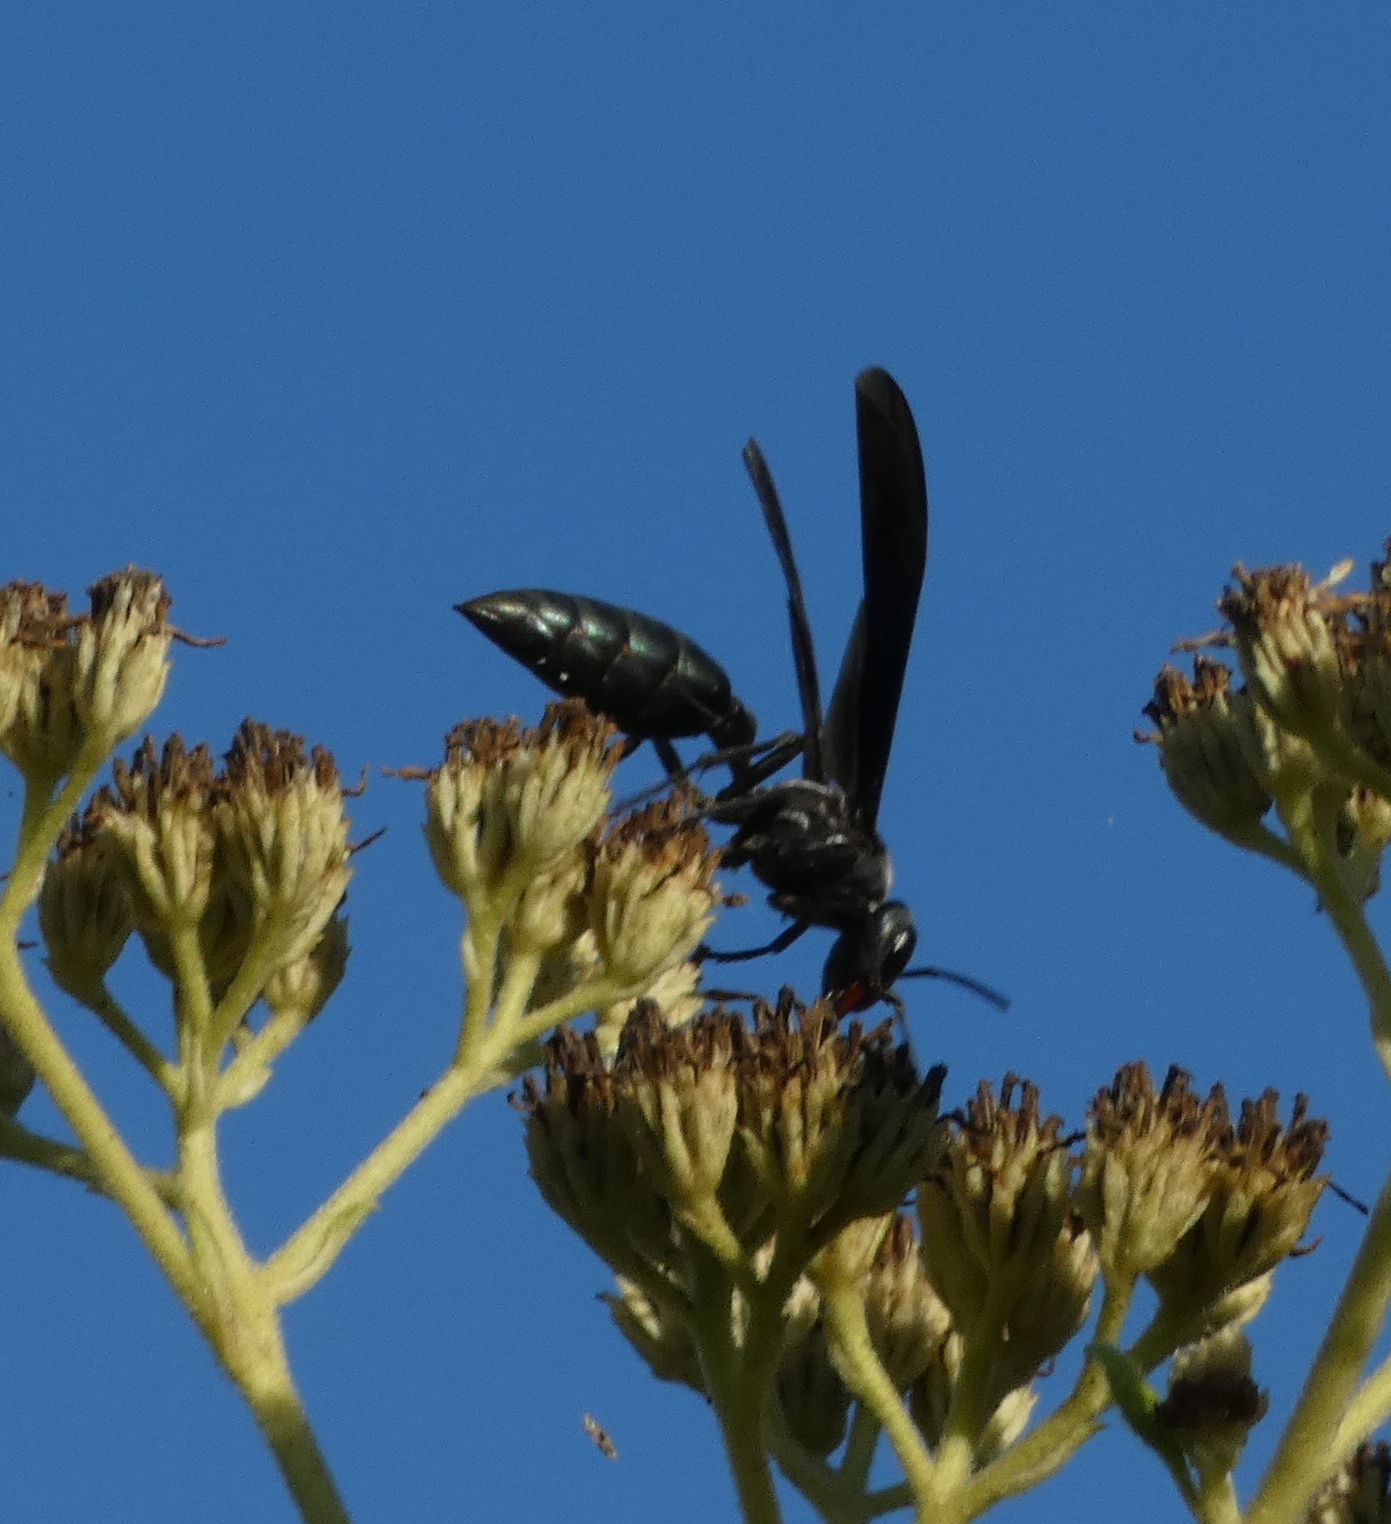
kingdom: Animalia
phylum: Arthropoda
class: Insecta
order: Hymenoptera
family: Vespidae
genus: Synoeca
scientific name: Synoeca ilheensis
